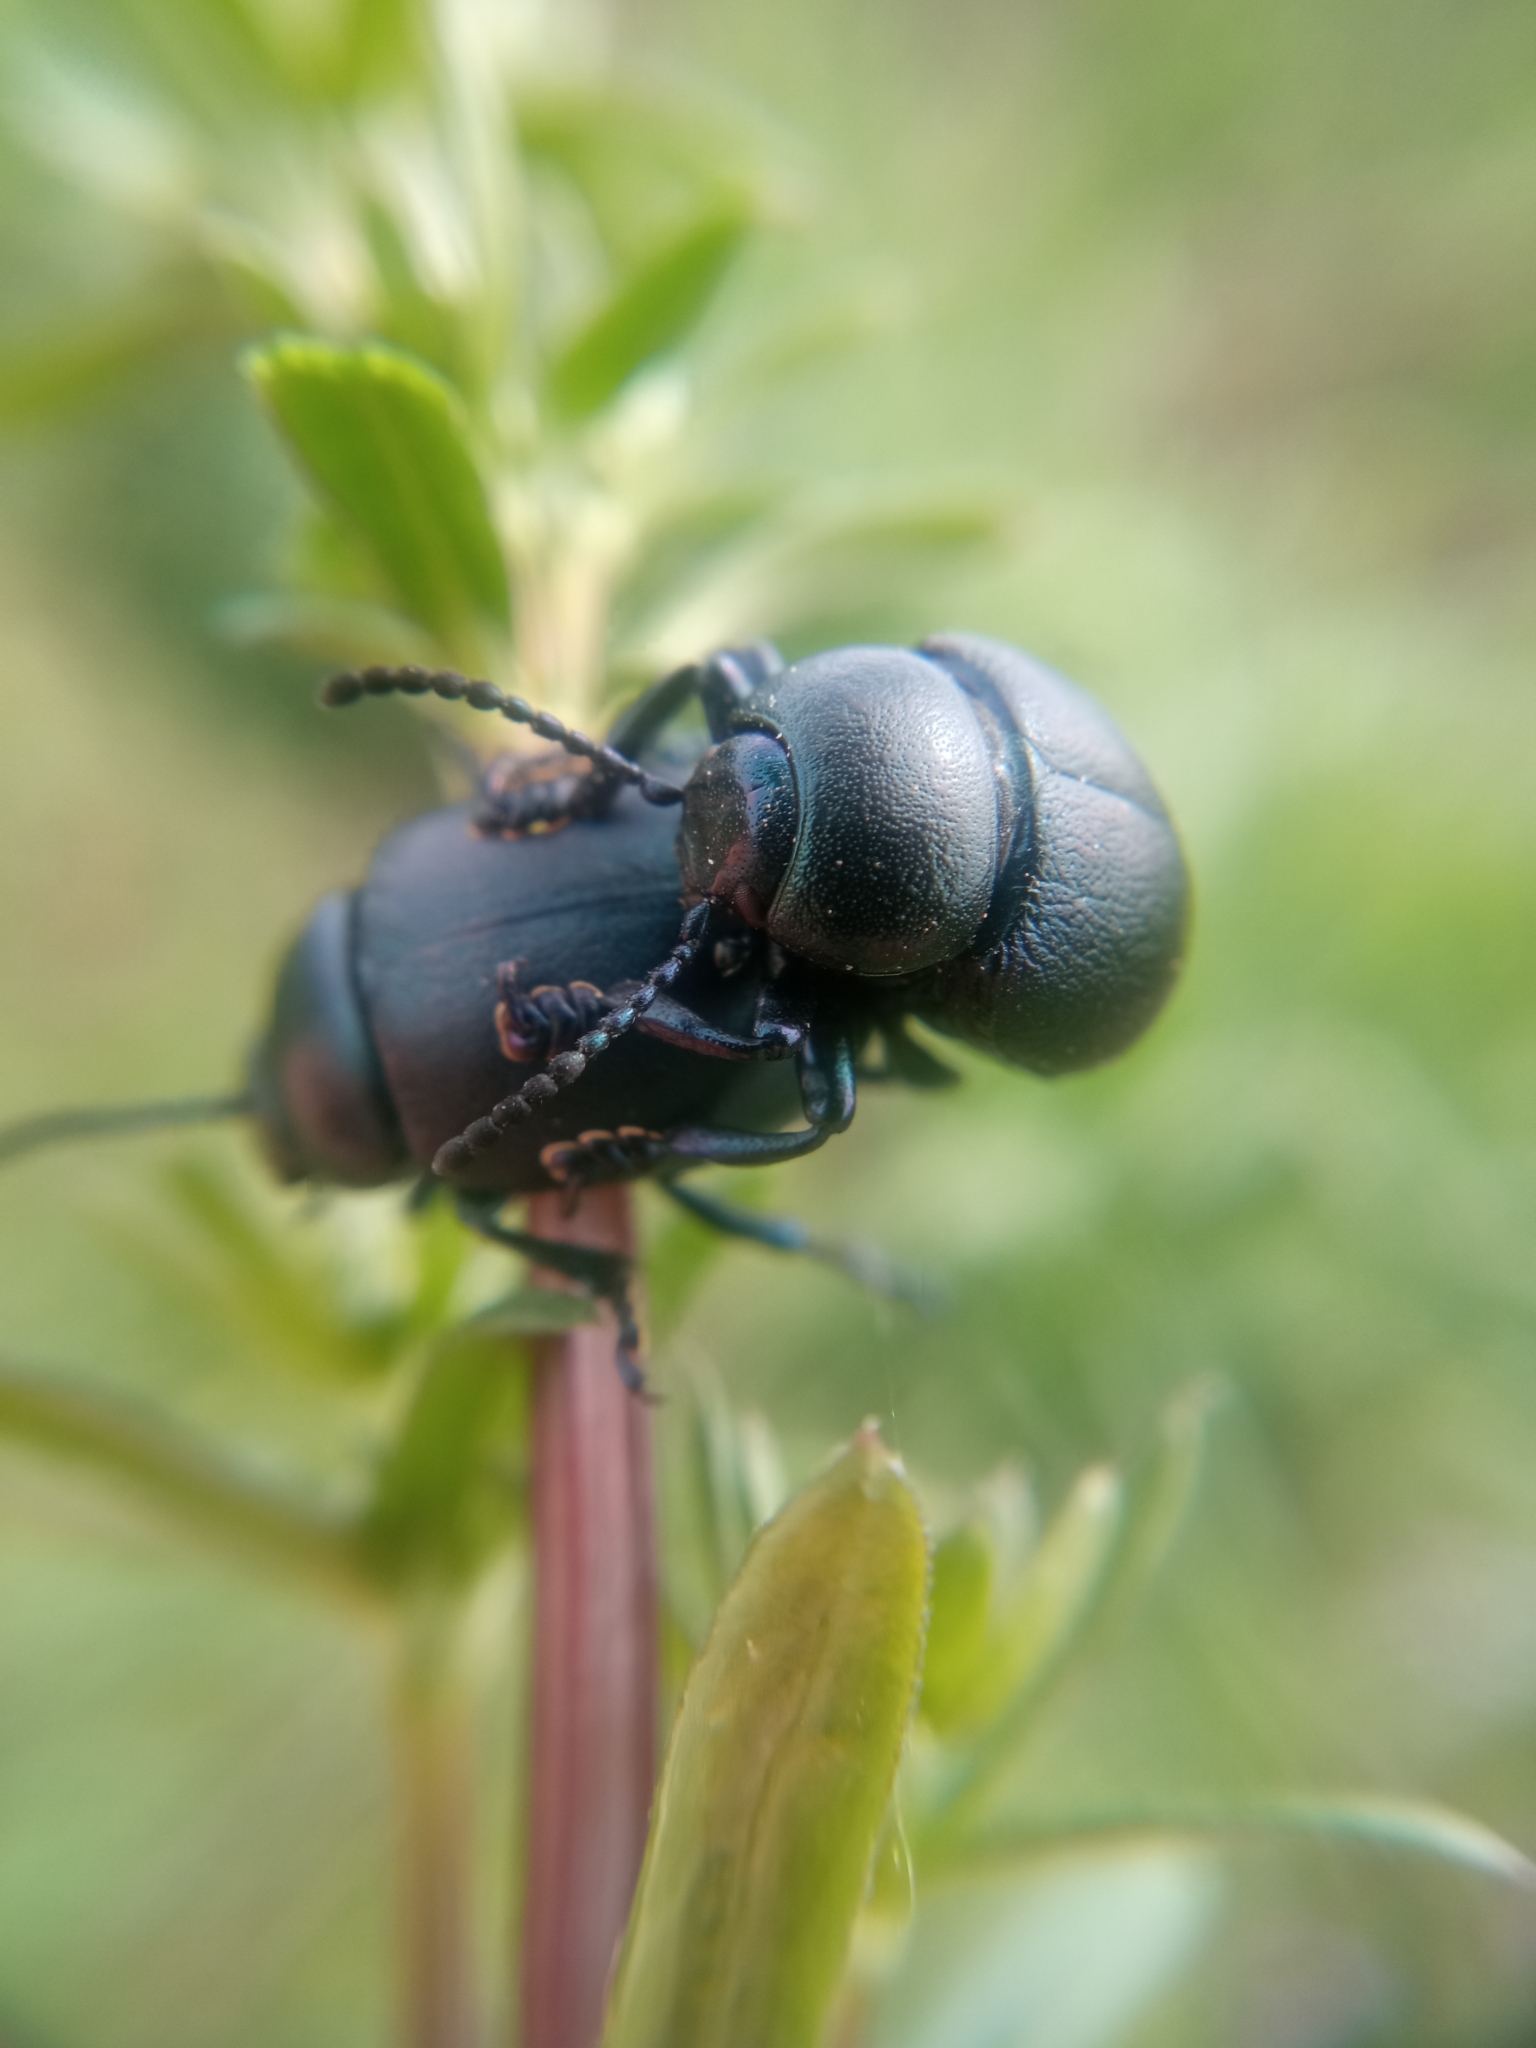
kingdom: Animalia
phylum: Arthropoda
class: Insecta
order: Coleoptera
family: Chrysomelidae
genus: Timarcha
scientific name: Timarcha goettingensis
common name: Small bloody-nosed beetle
